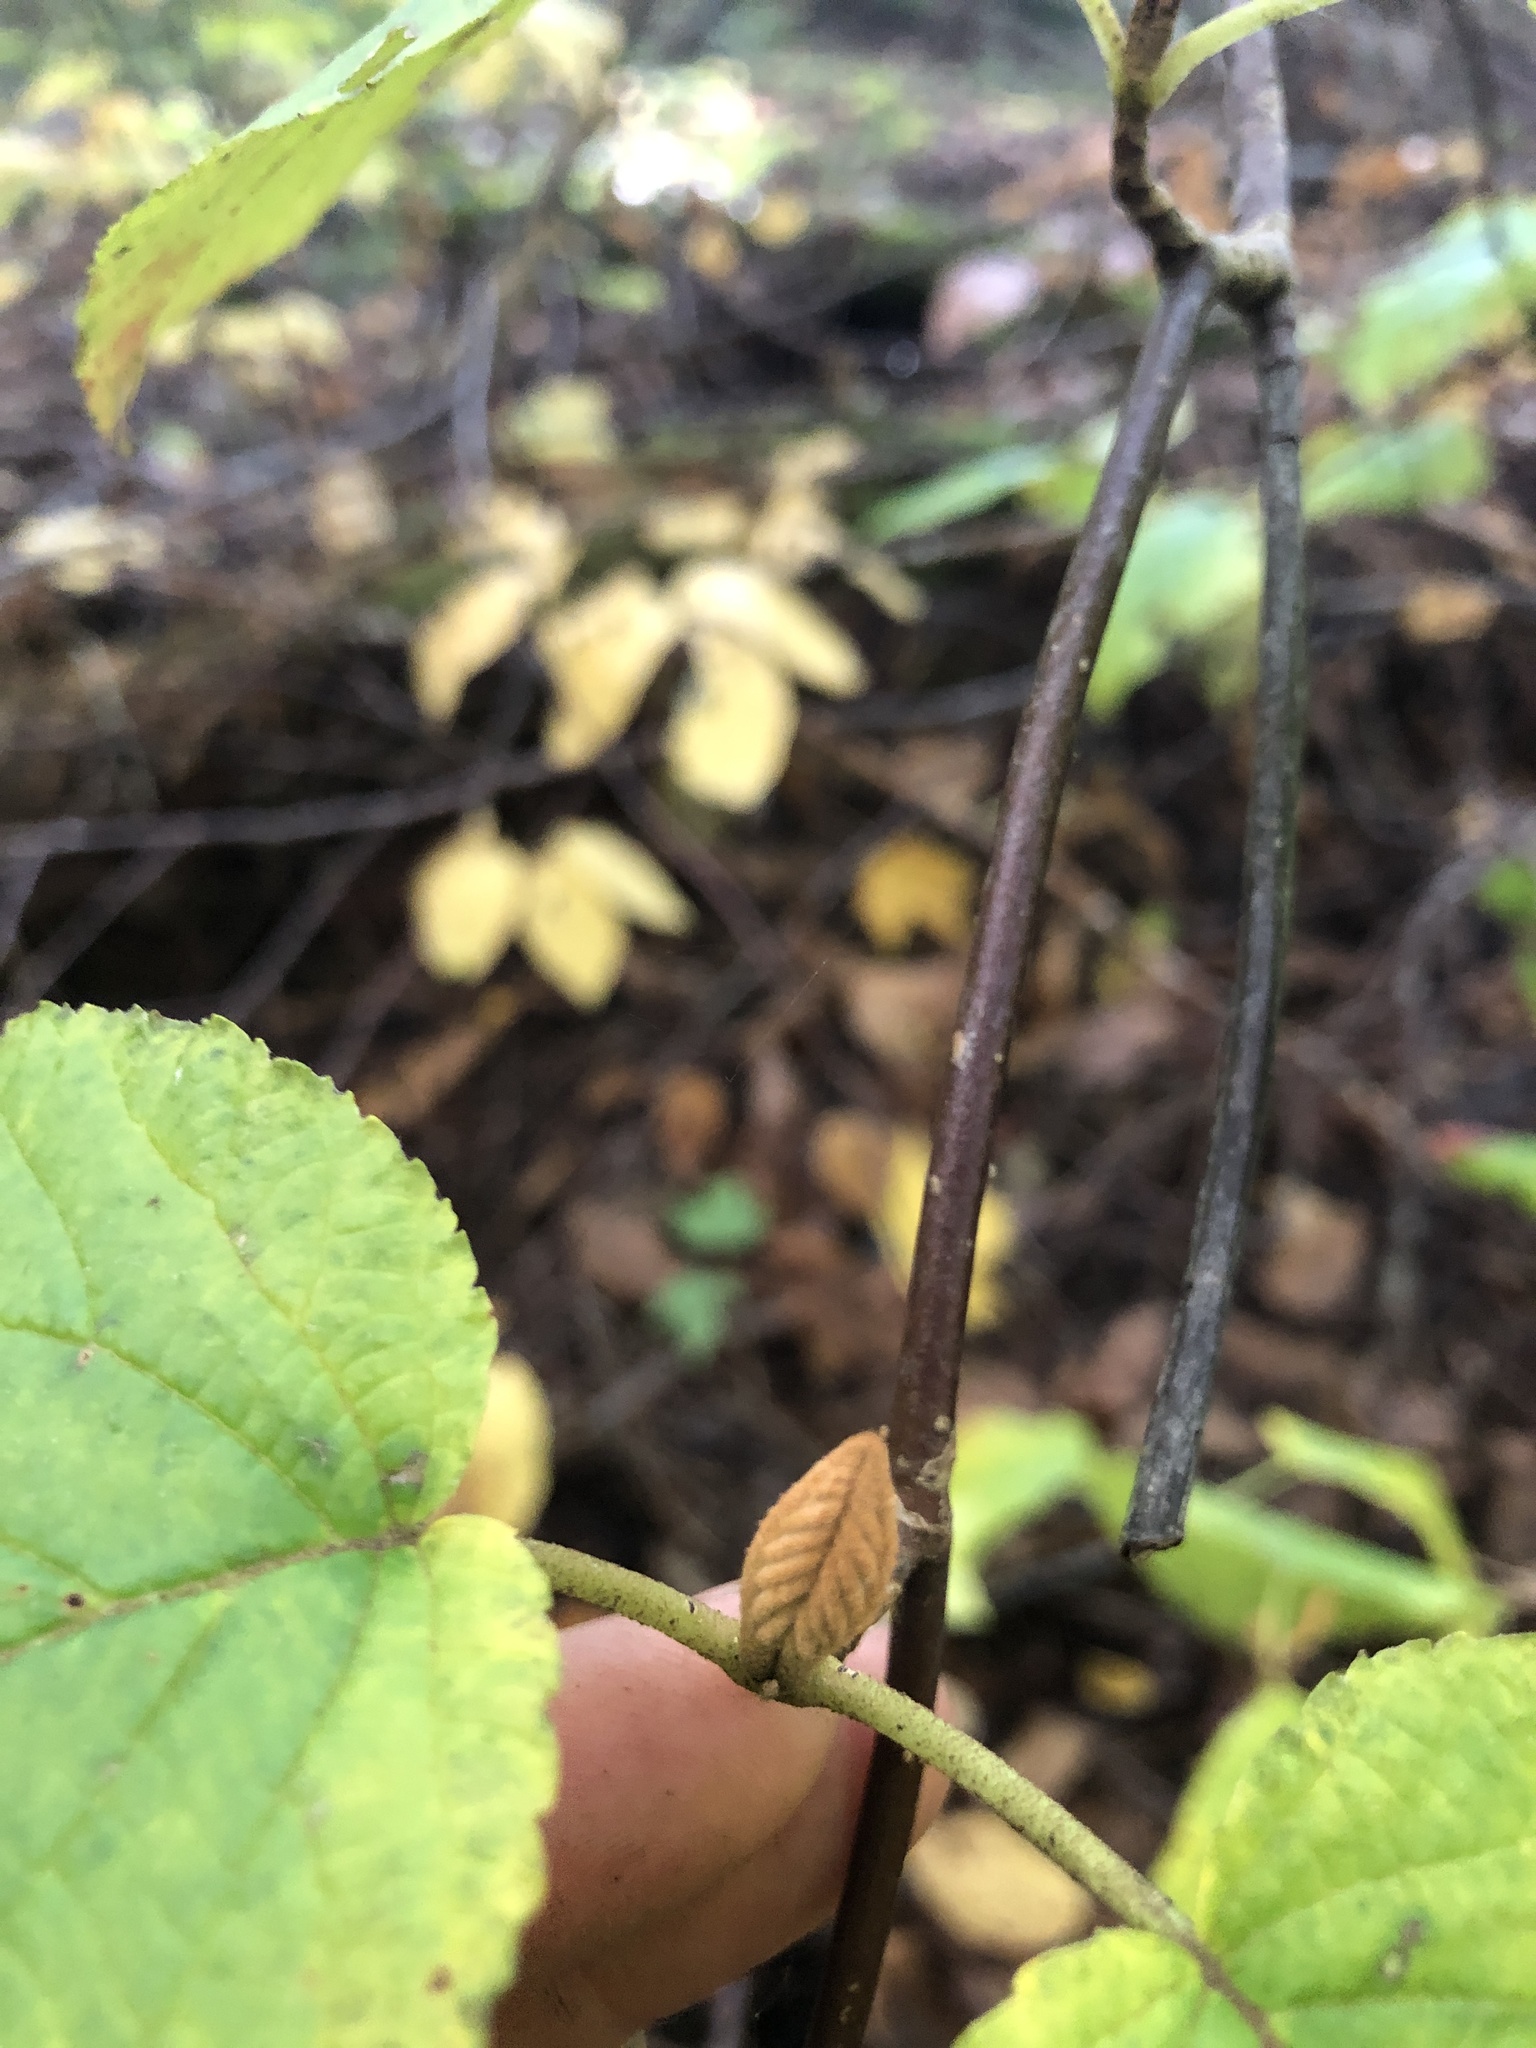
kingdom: Plantae
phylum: Tracheophyta
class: Magnoliopsida
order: Dipsacales
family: Viburnaceae
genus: Viburnum
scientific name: Viburnum lantanoides
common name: Hobblebush
